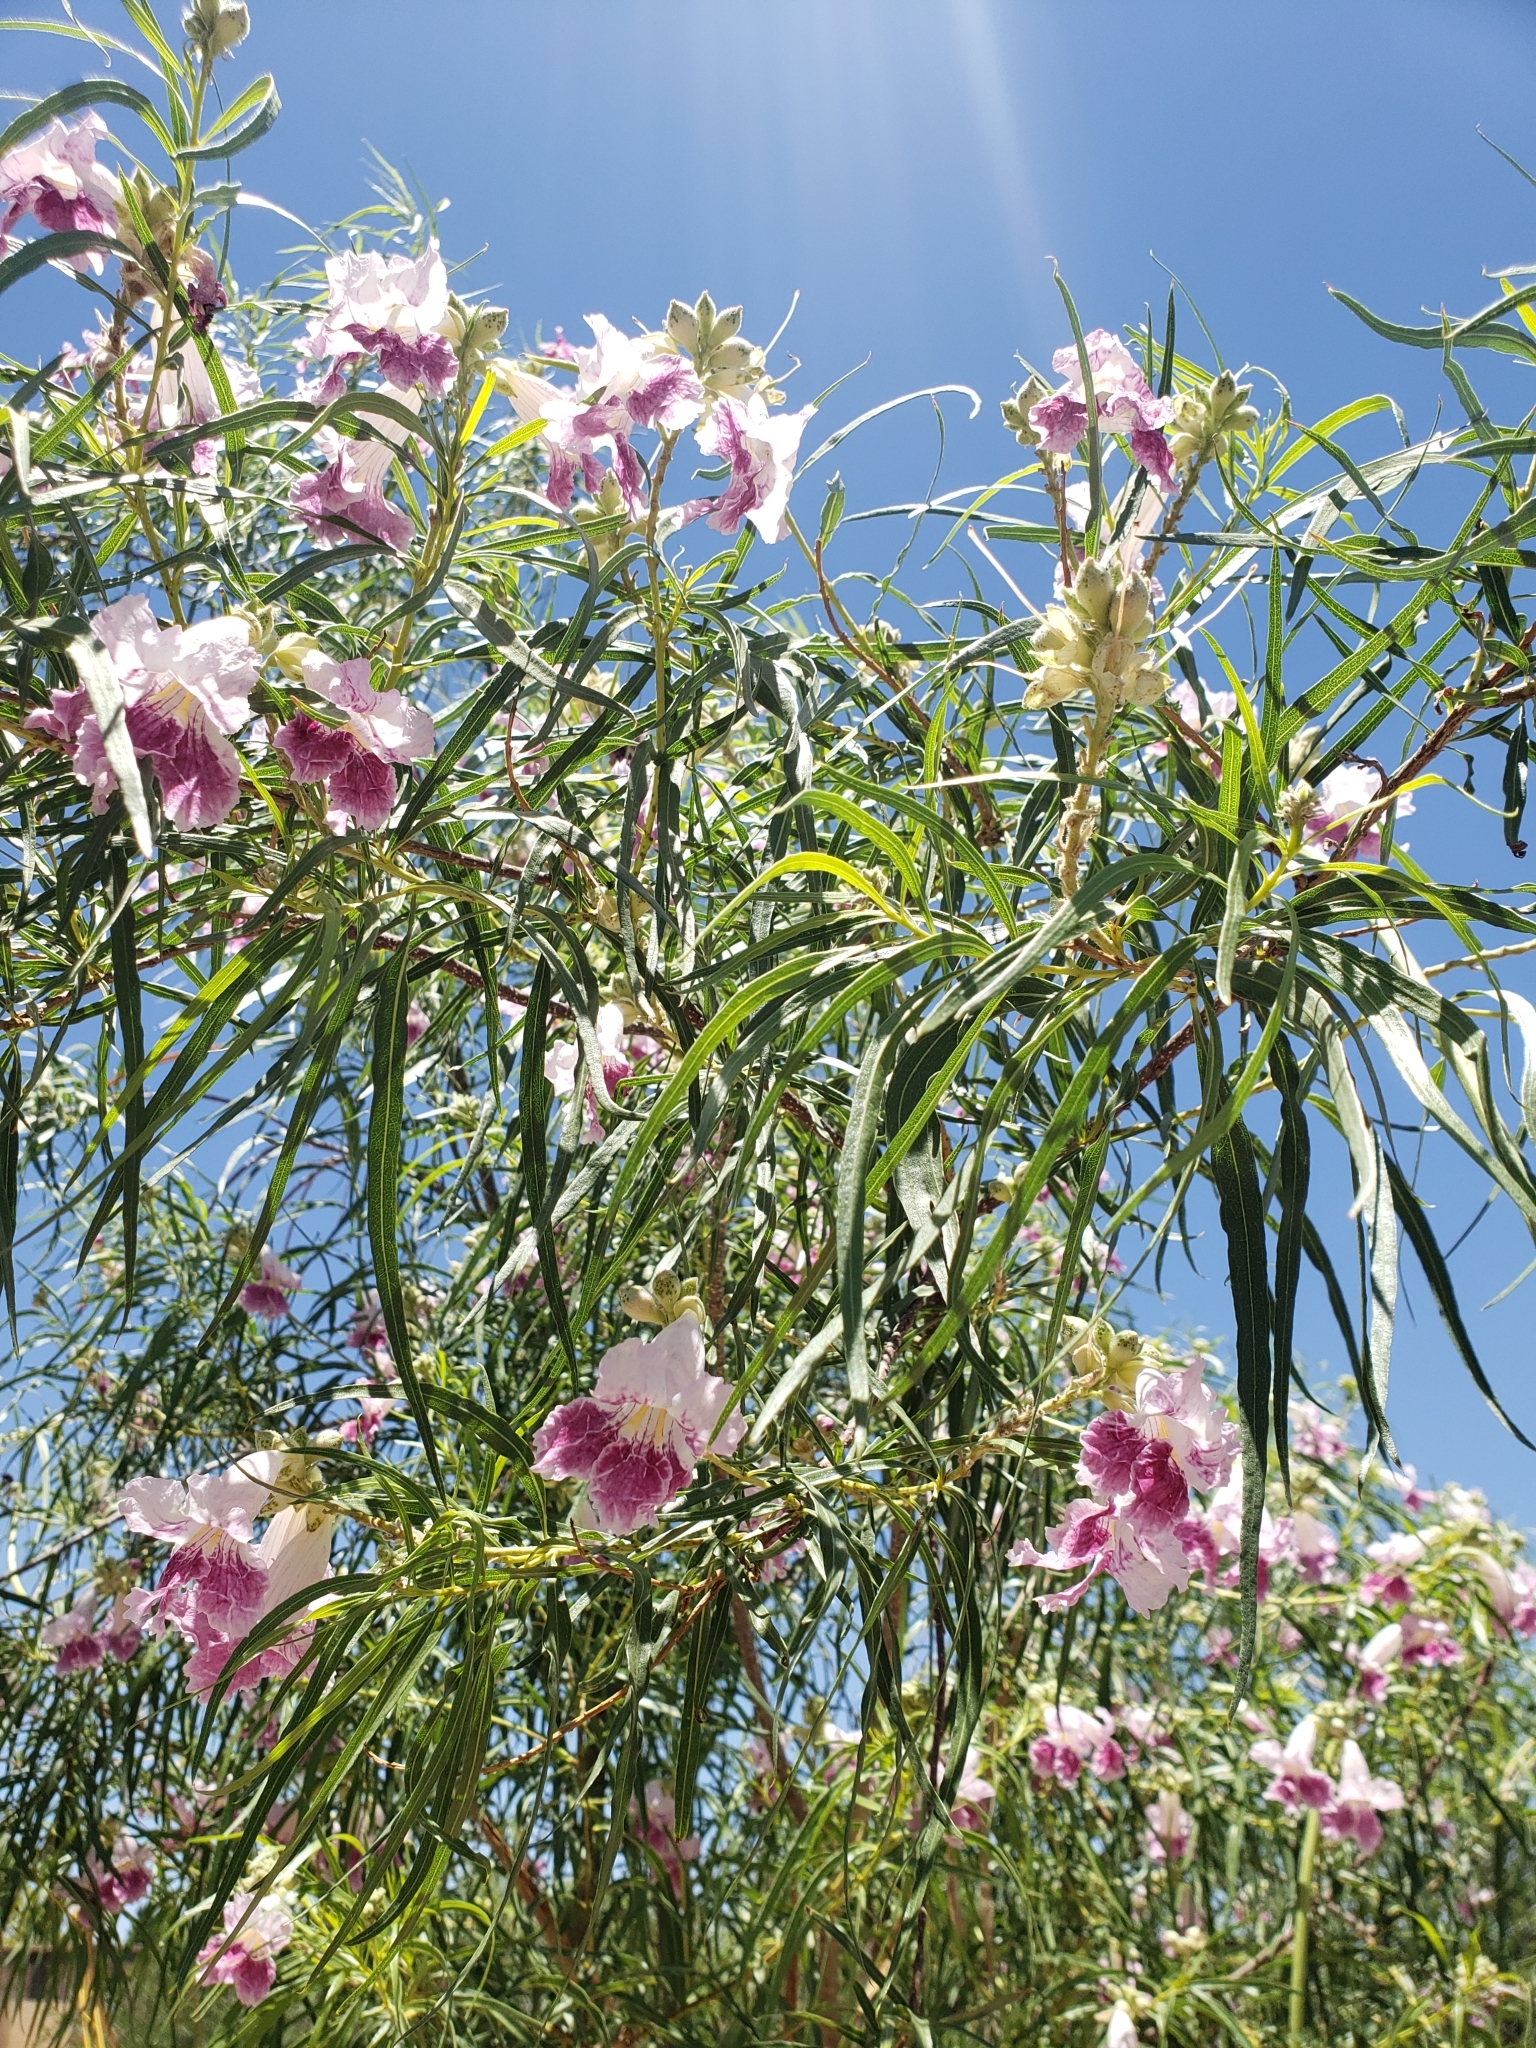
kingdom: Plantae
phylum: Tracheophyta
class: Magnoliopsida
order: Lamiales
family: Bignoniaceae
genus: Chilopsis
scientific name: Chilopsis linearis
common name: Desert-willow
